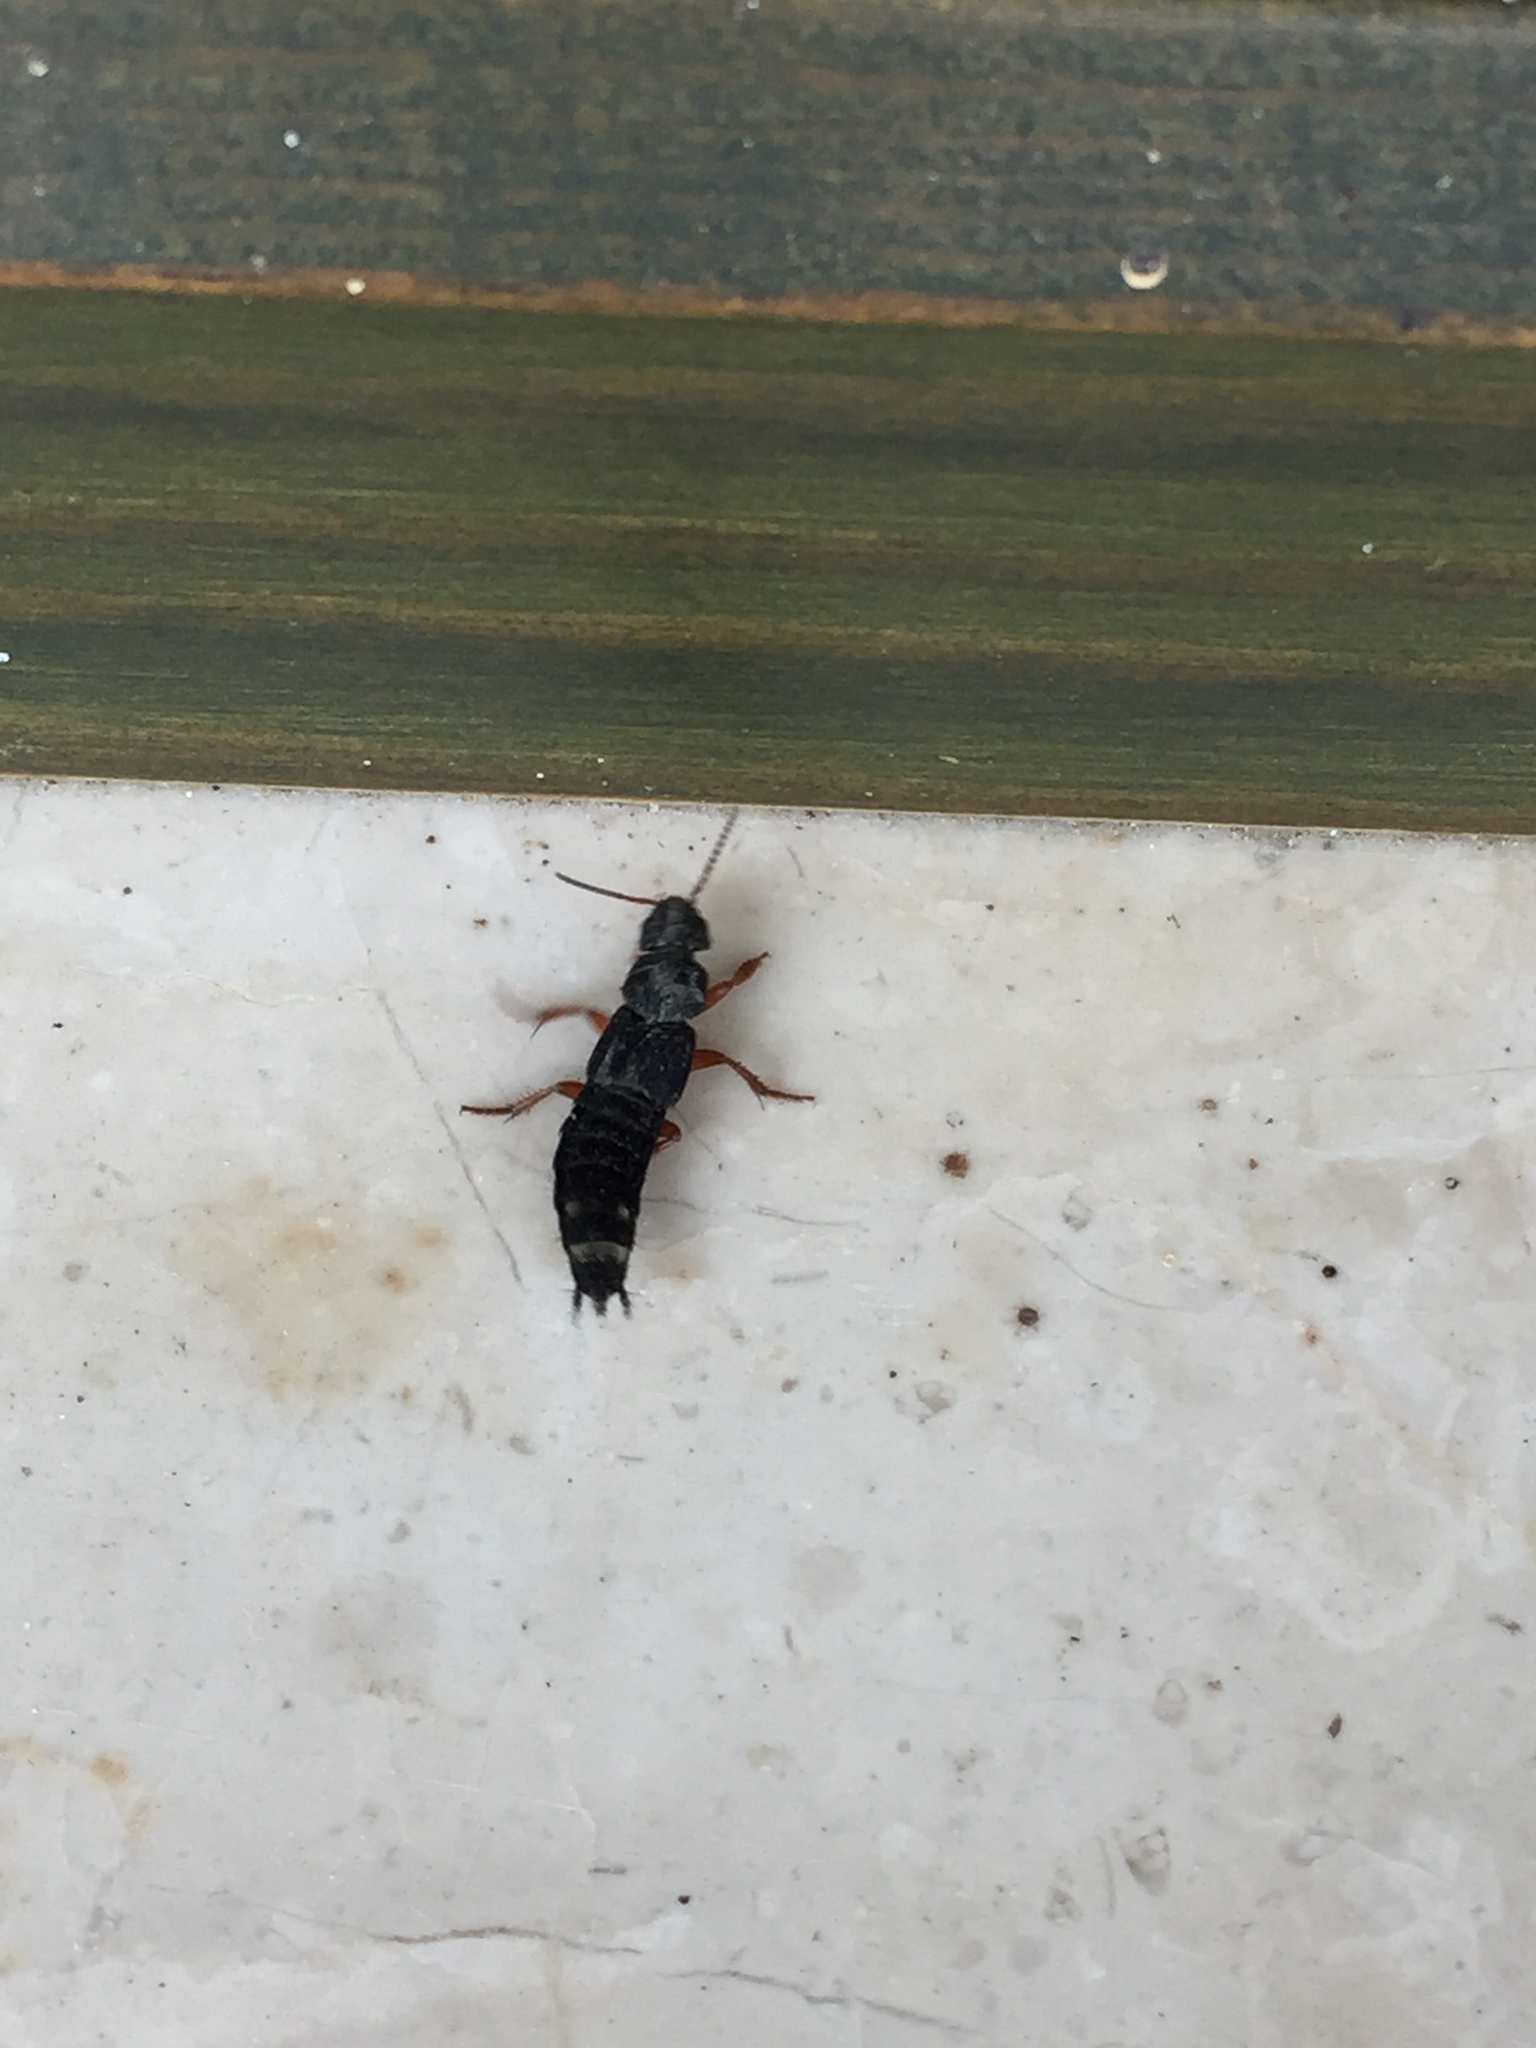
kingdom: Animalia
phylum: Arthropoda
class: Insecta
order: Coleoptera
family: Staphylinidae
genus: Platydracus
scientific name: Platydracus fulvipes
